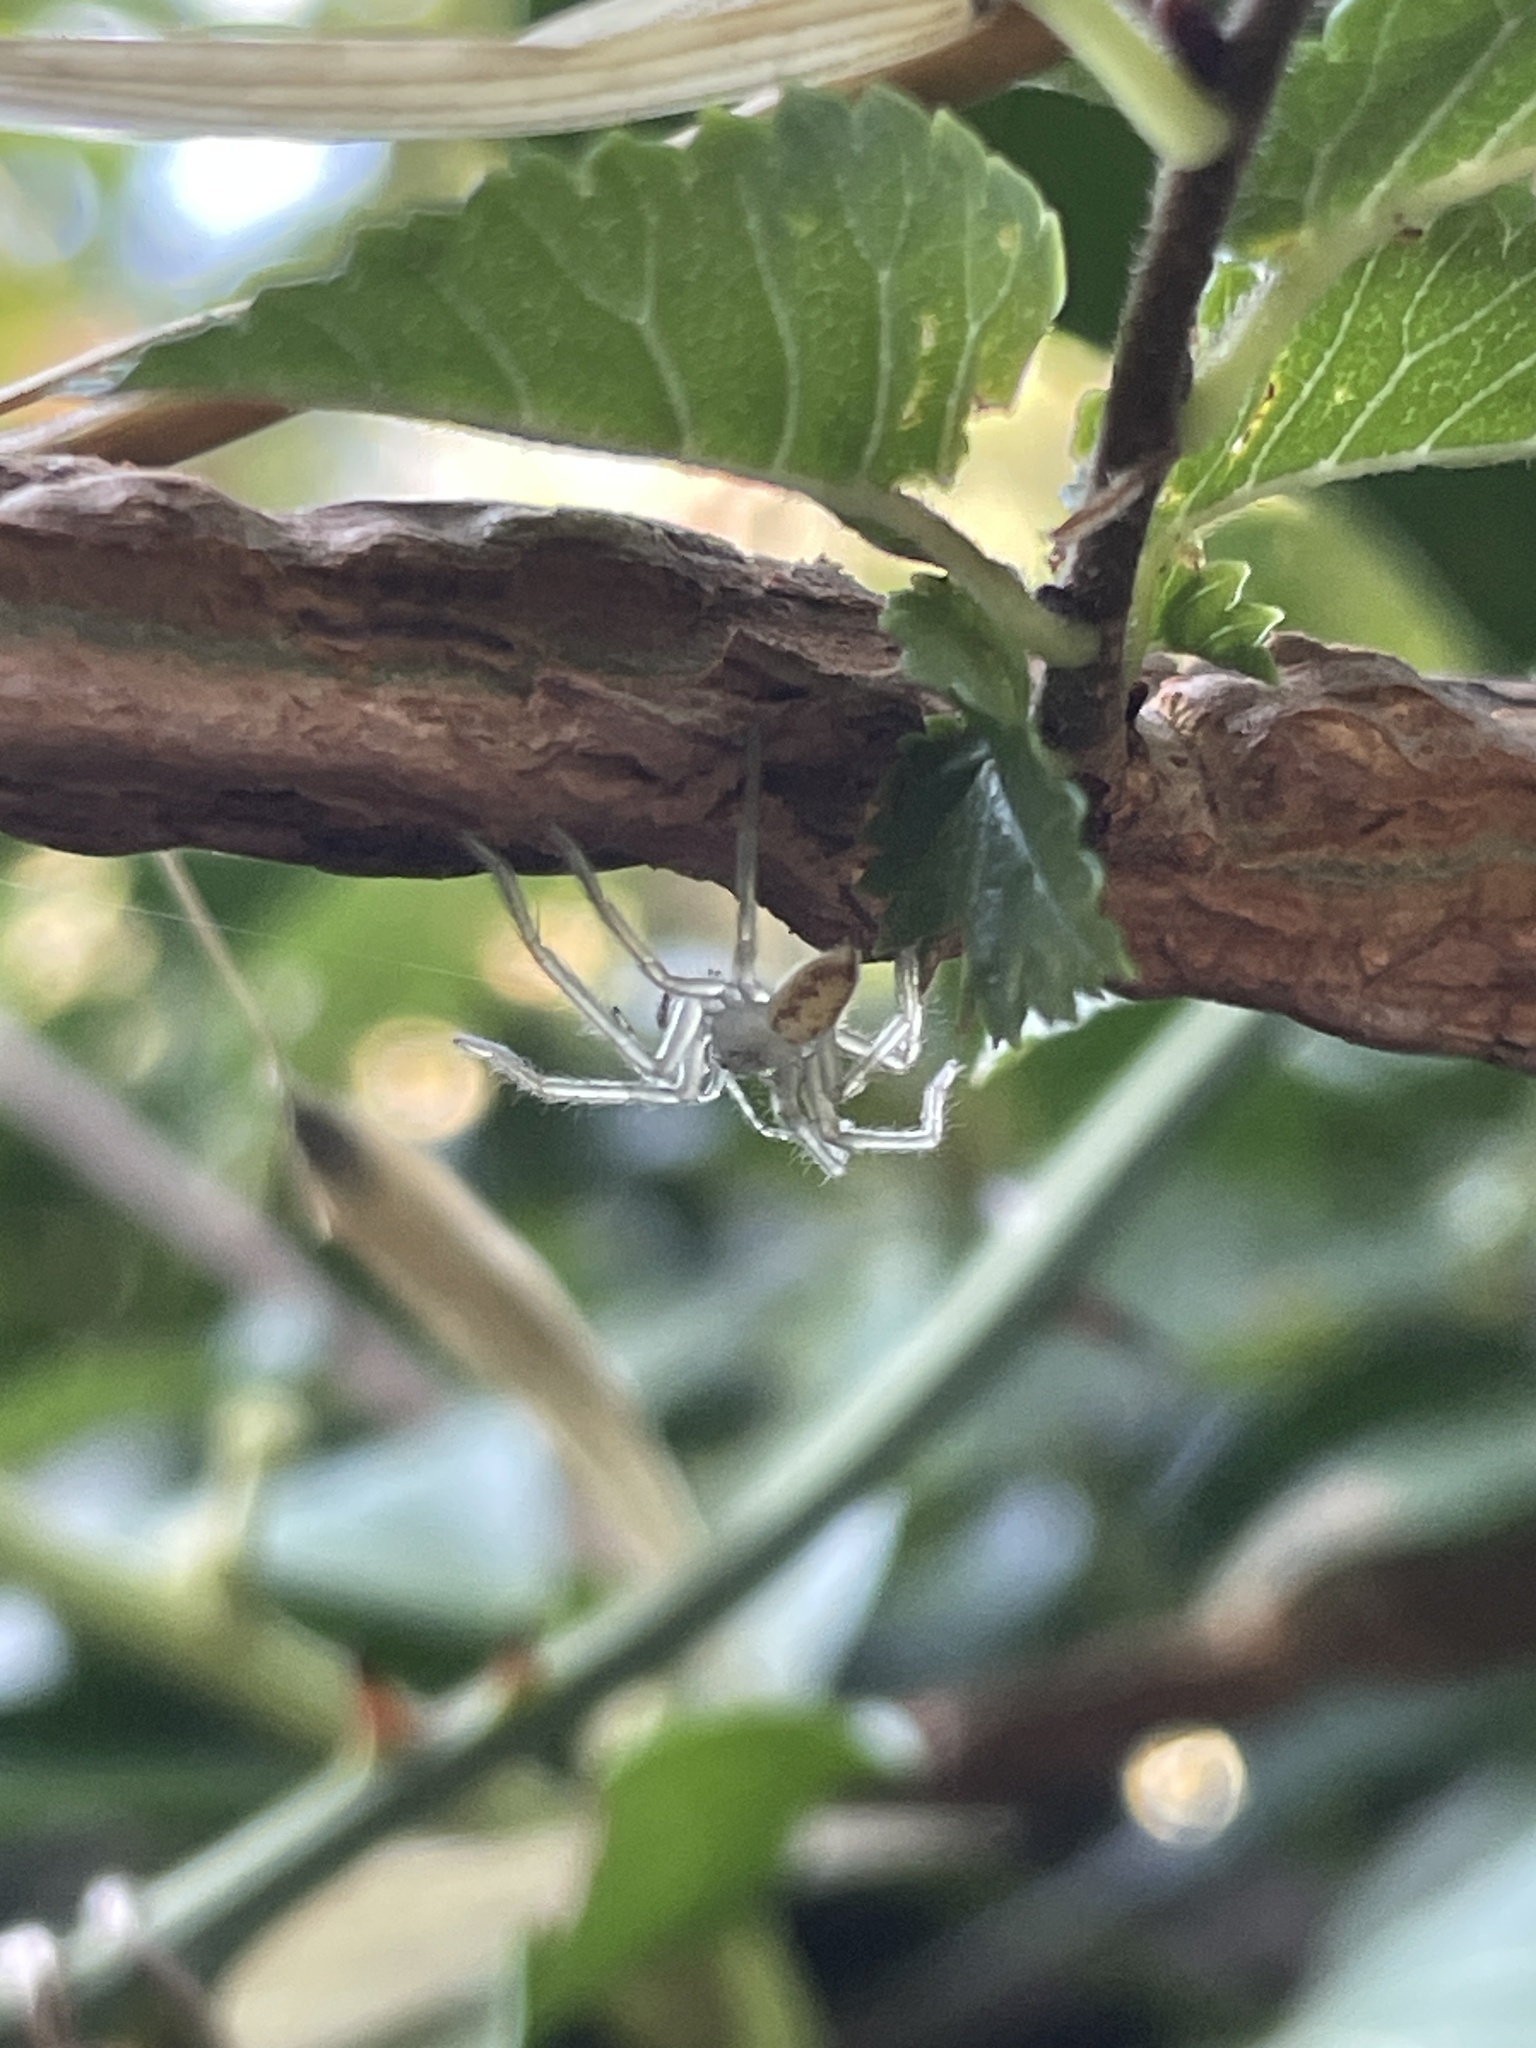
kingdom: Animalia
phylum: Arthropoda
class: Arachnida
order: Araneae
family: Sparassidae
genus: Olios
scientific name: Olios argelasius
